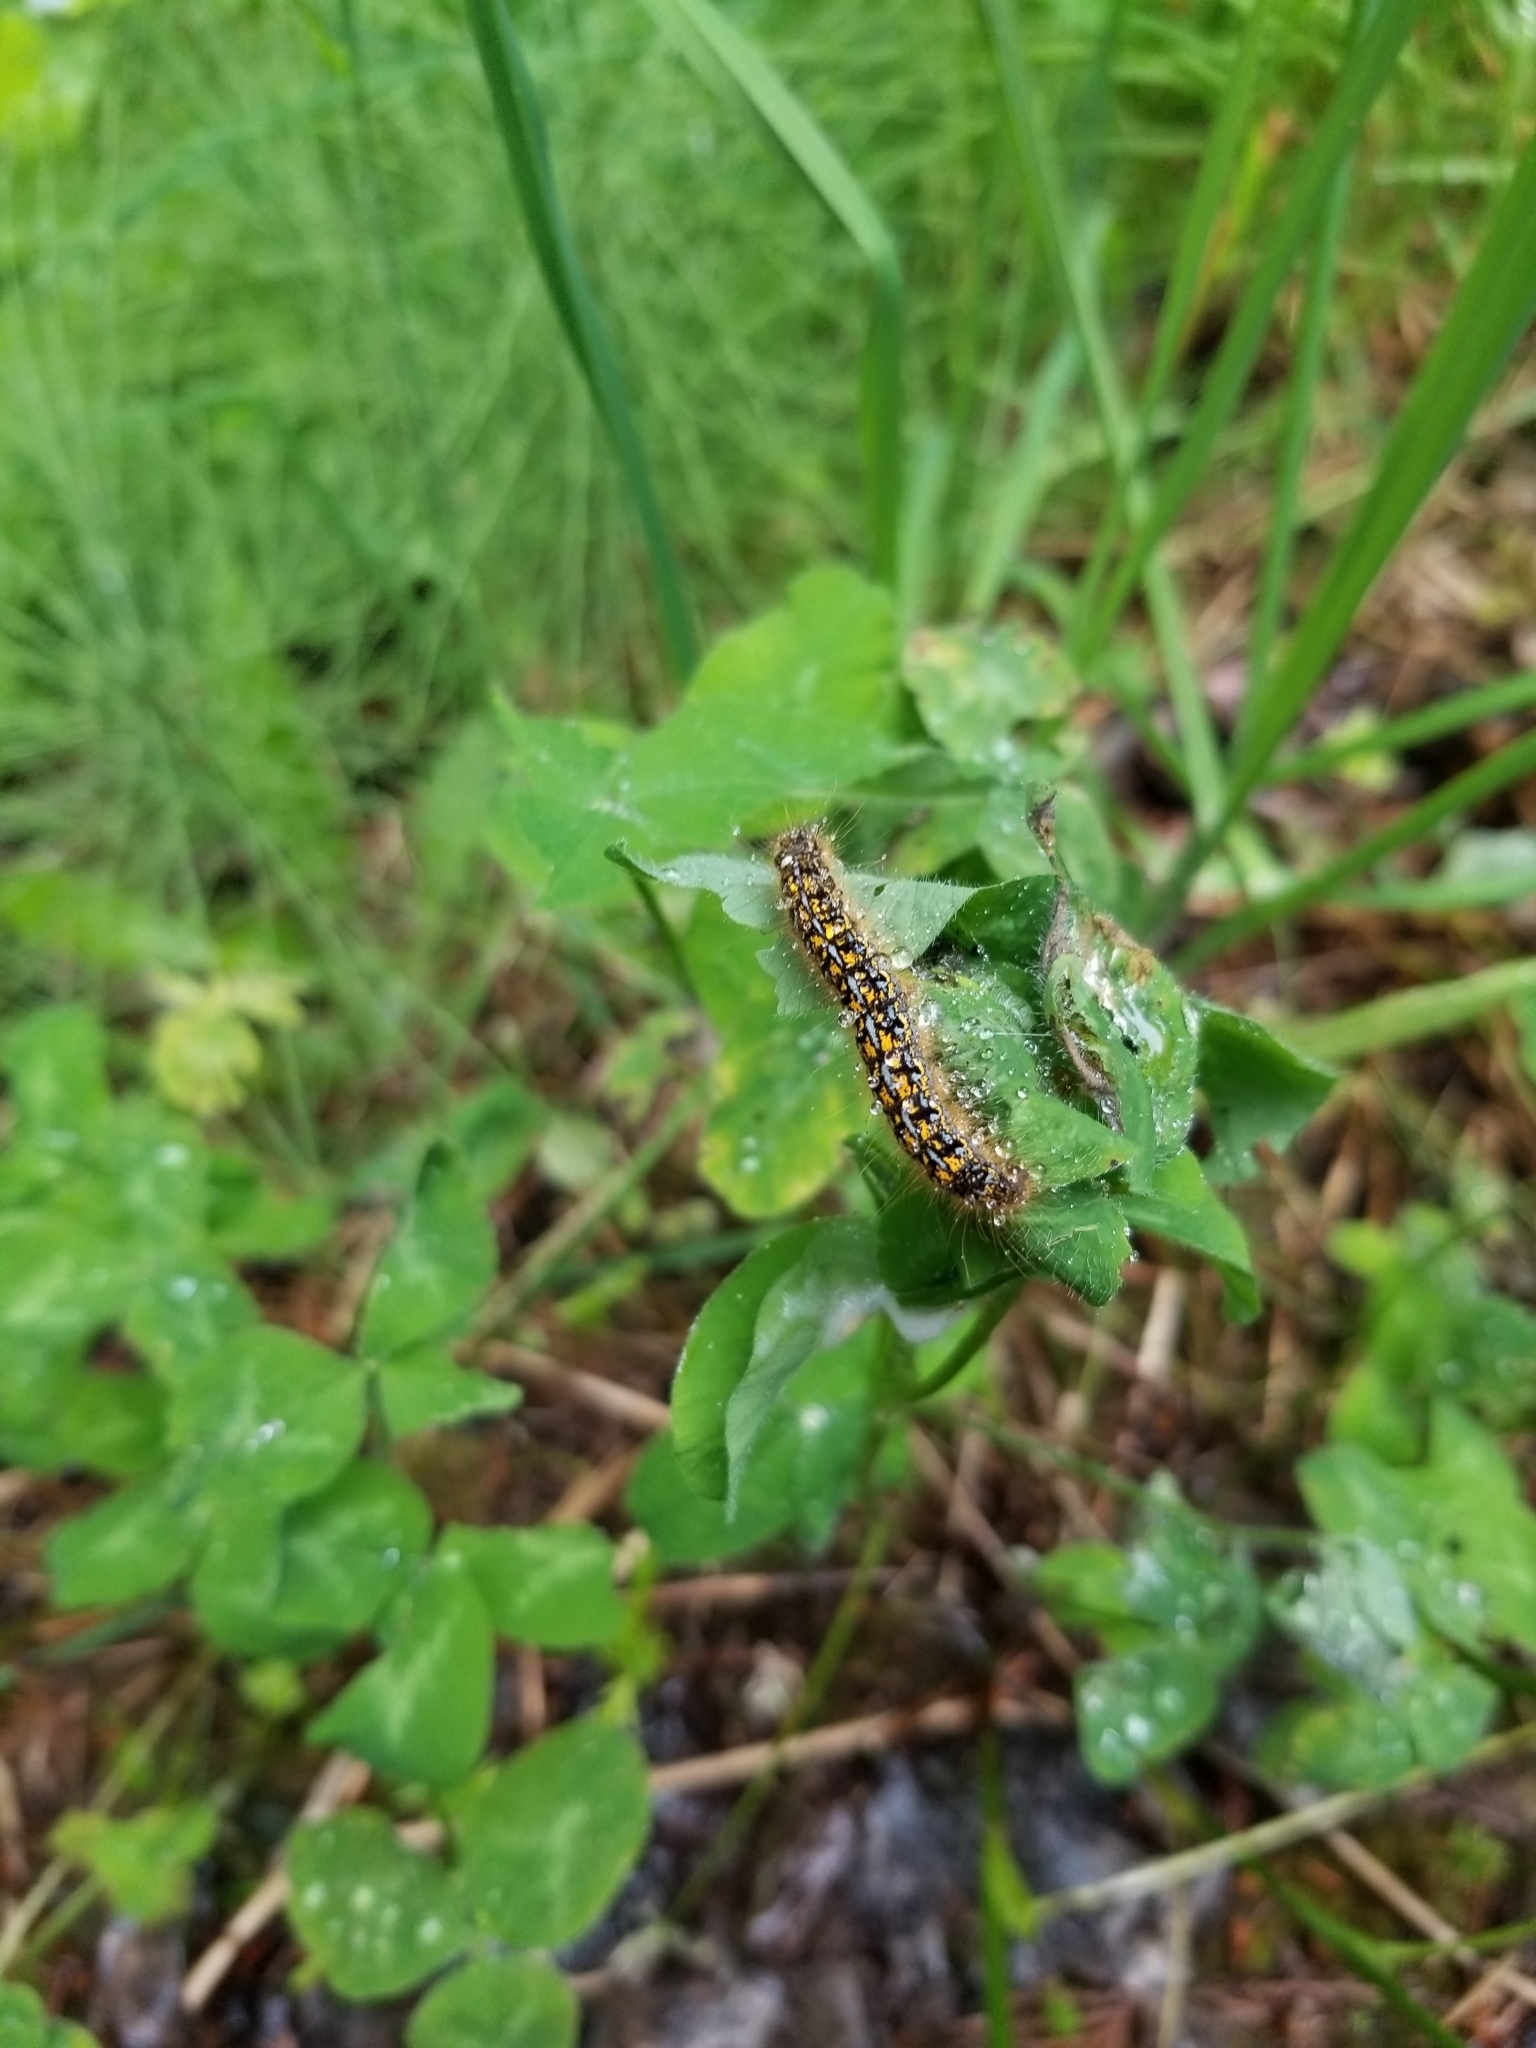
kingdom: Animalia
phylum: Arthropoda
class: Insecta
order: Lepidoptera
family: Lasiocampidae
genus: Malacosoma
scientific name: Malacosoma californica
